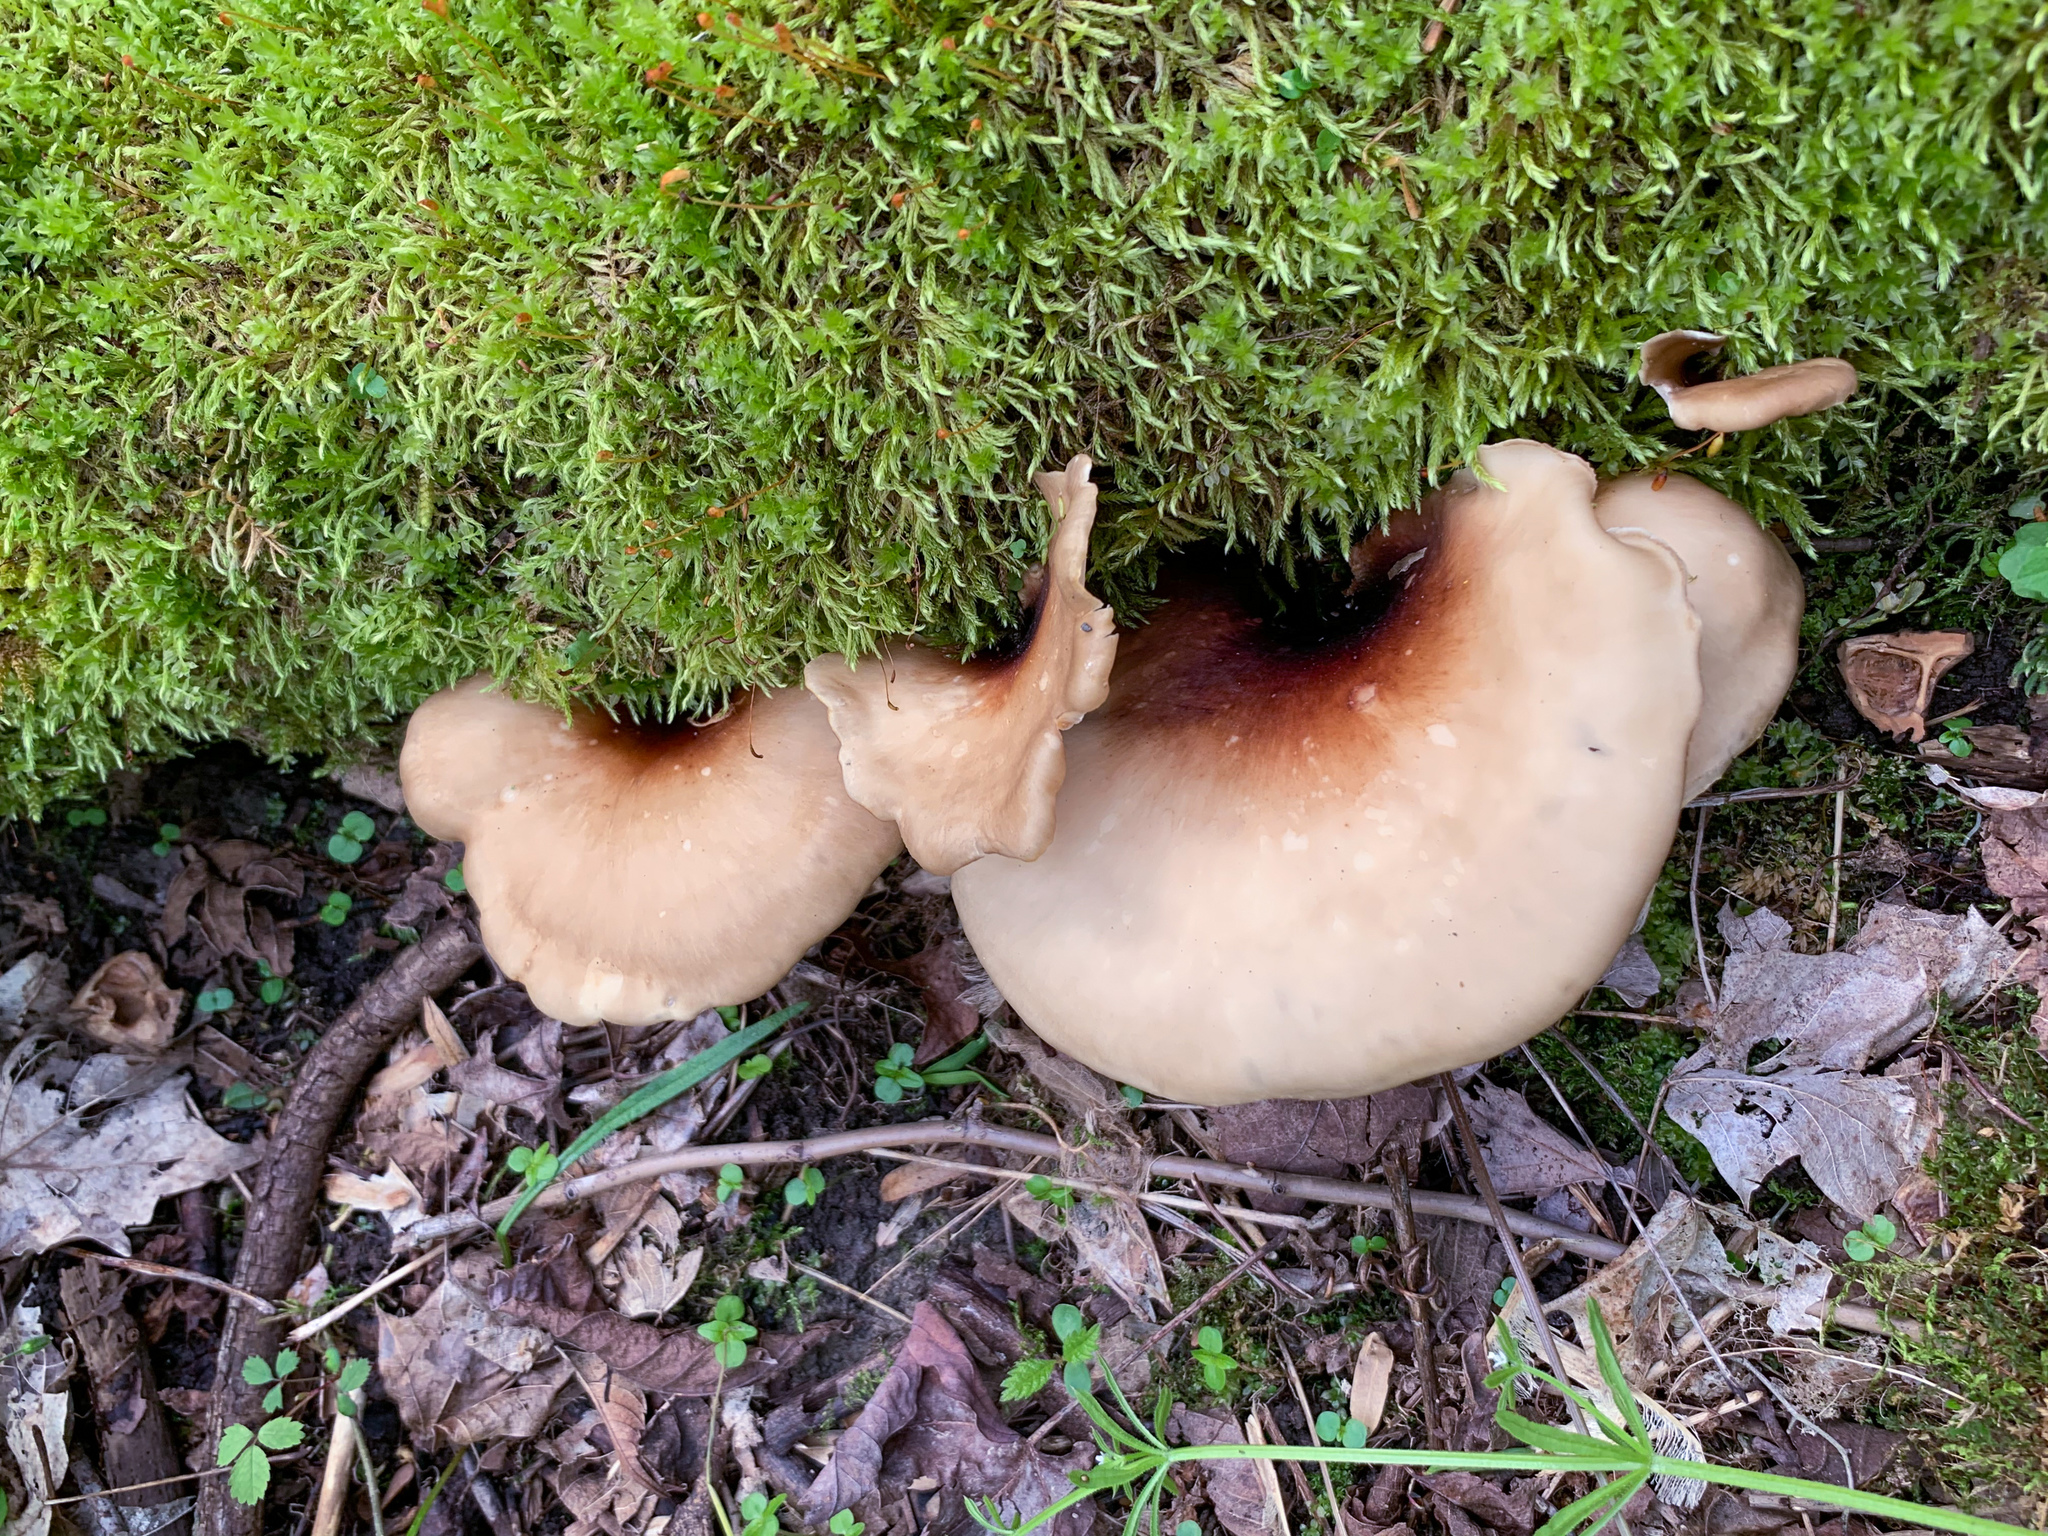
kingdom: Fungi
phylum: Basidiomycota
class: Agaricomycetes
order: Polyporales
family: Polyporaceae
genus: Picipes
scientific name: Picipes badius
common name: Bay polypore
